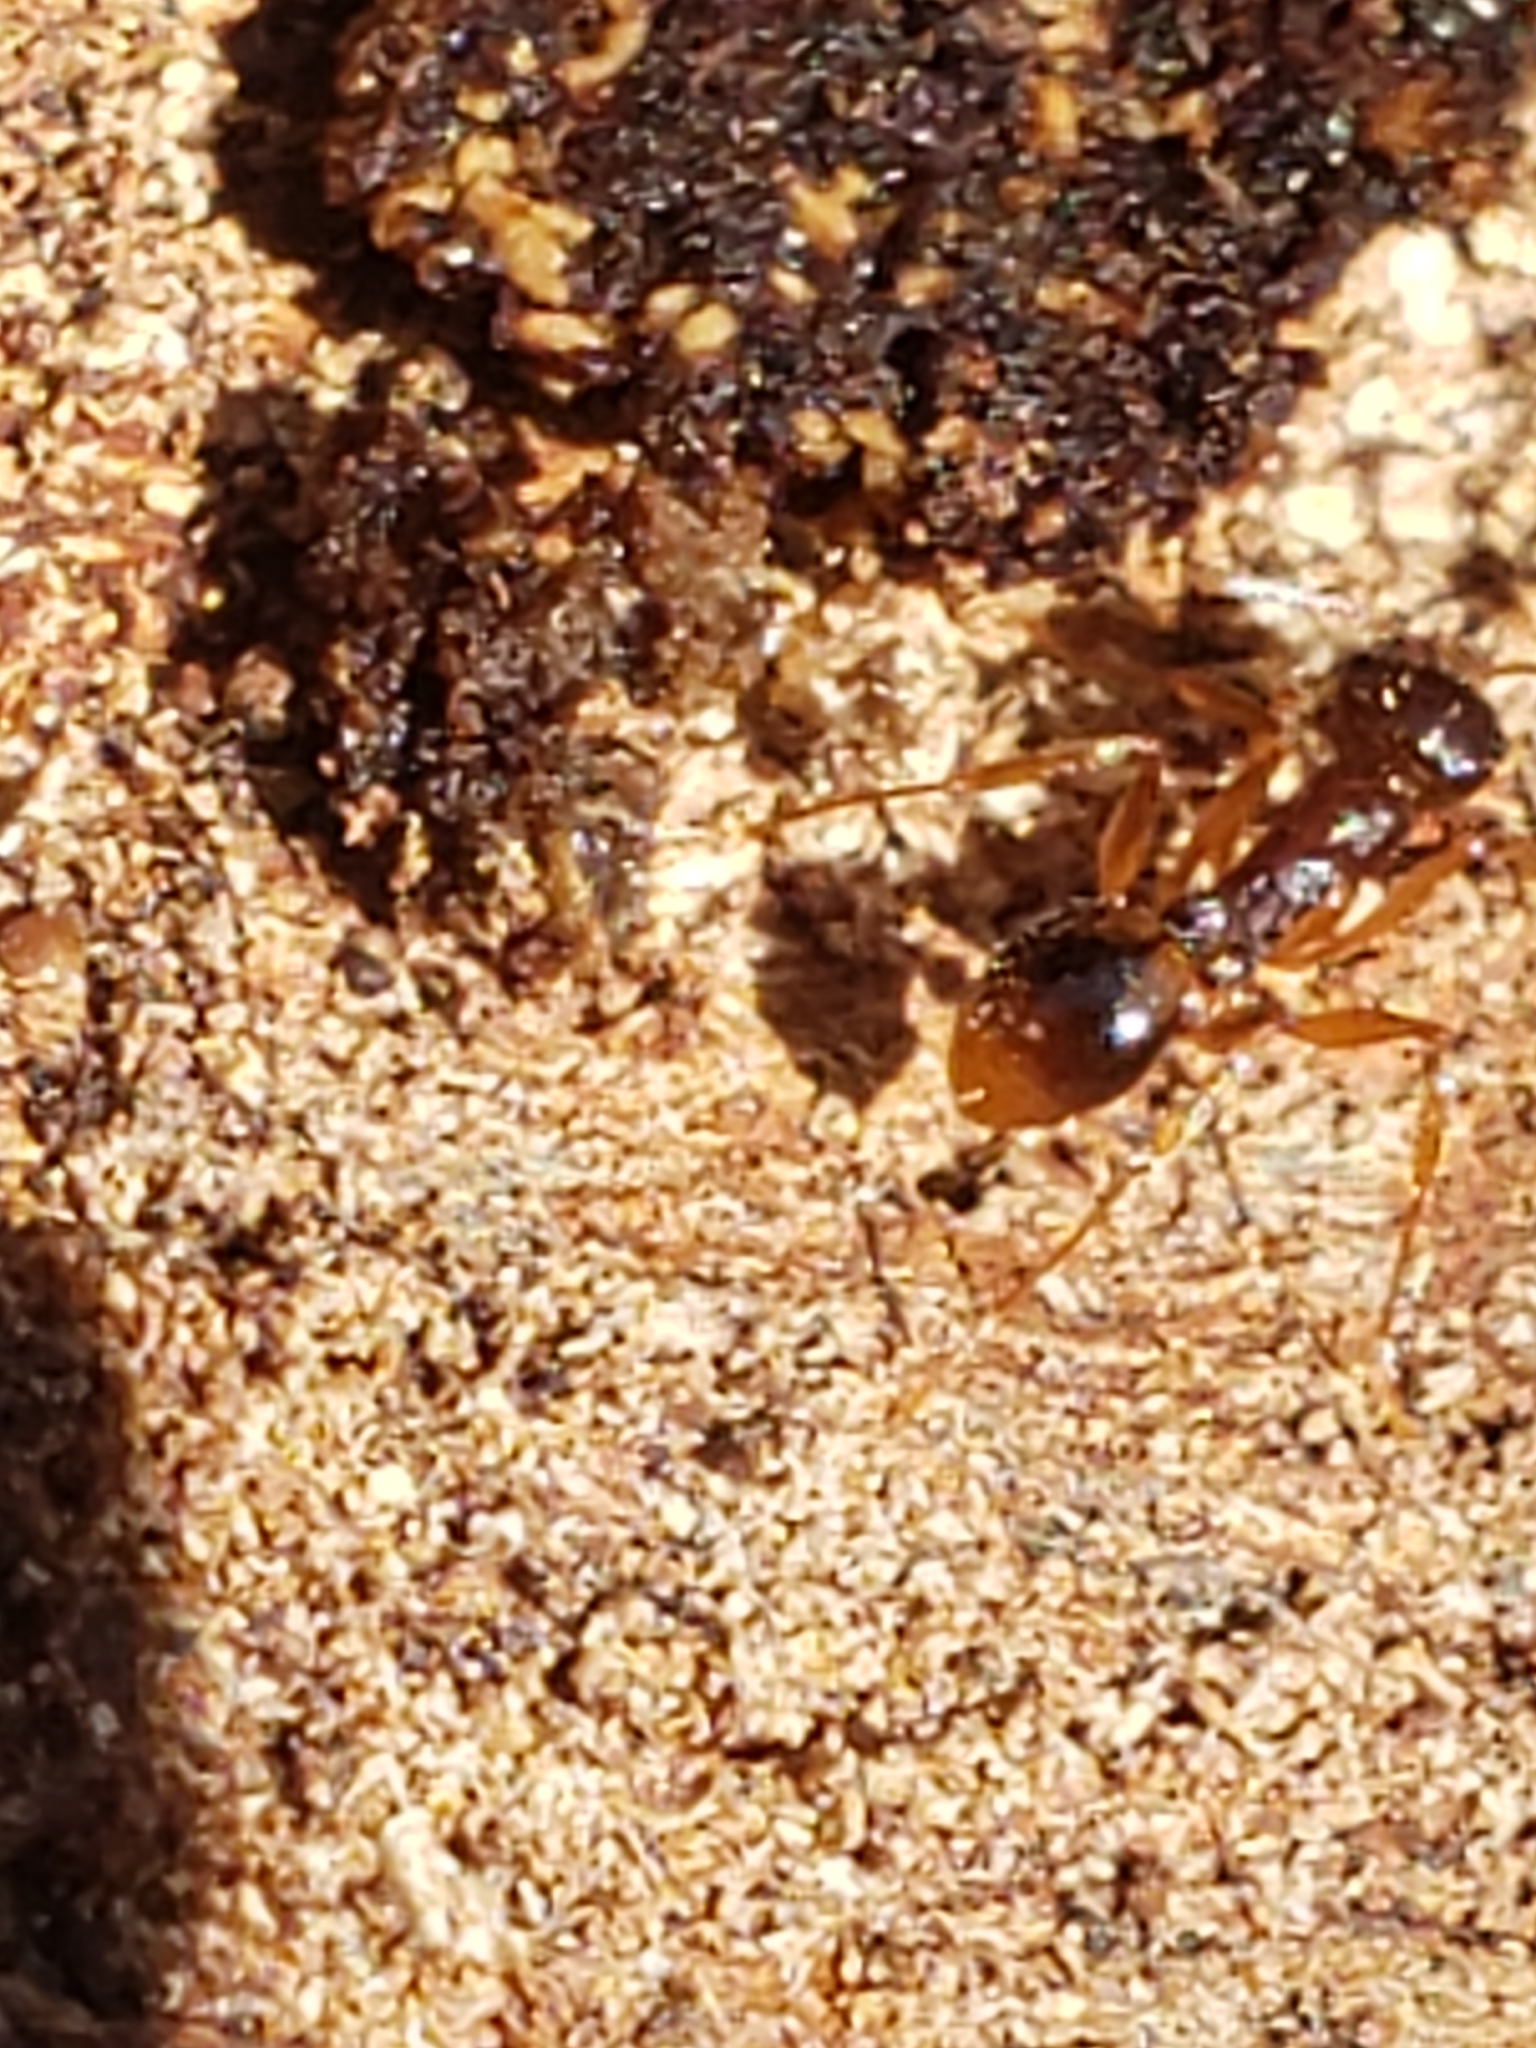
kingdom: Animalia
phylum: Arthropoda
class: Insecta
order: Hymenoptera
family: Formicidae
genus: Aphaenogaster
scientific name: Aphaenogaster rudis
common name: Winnow ant
